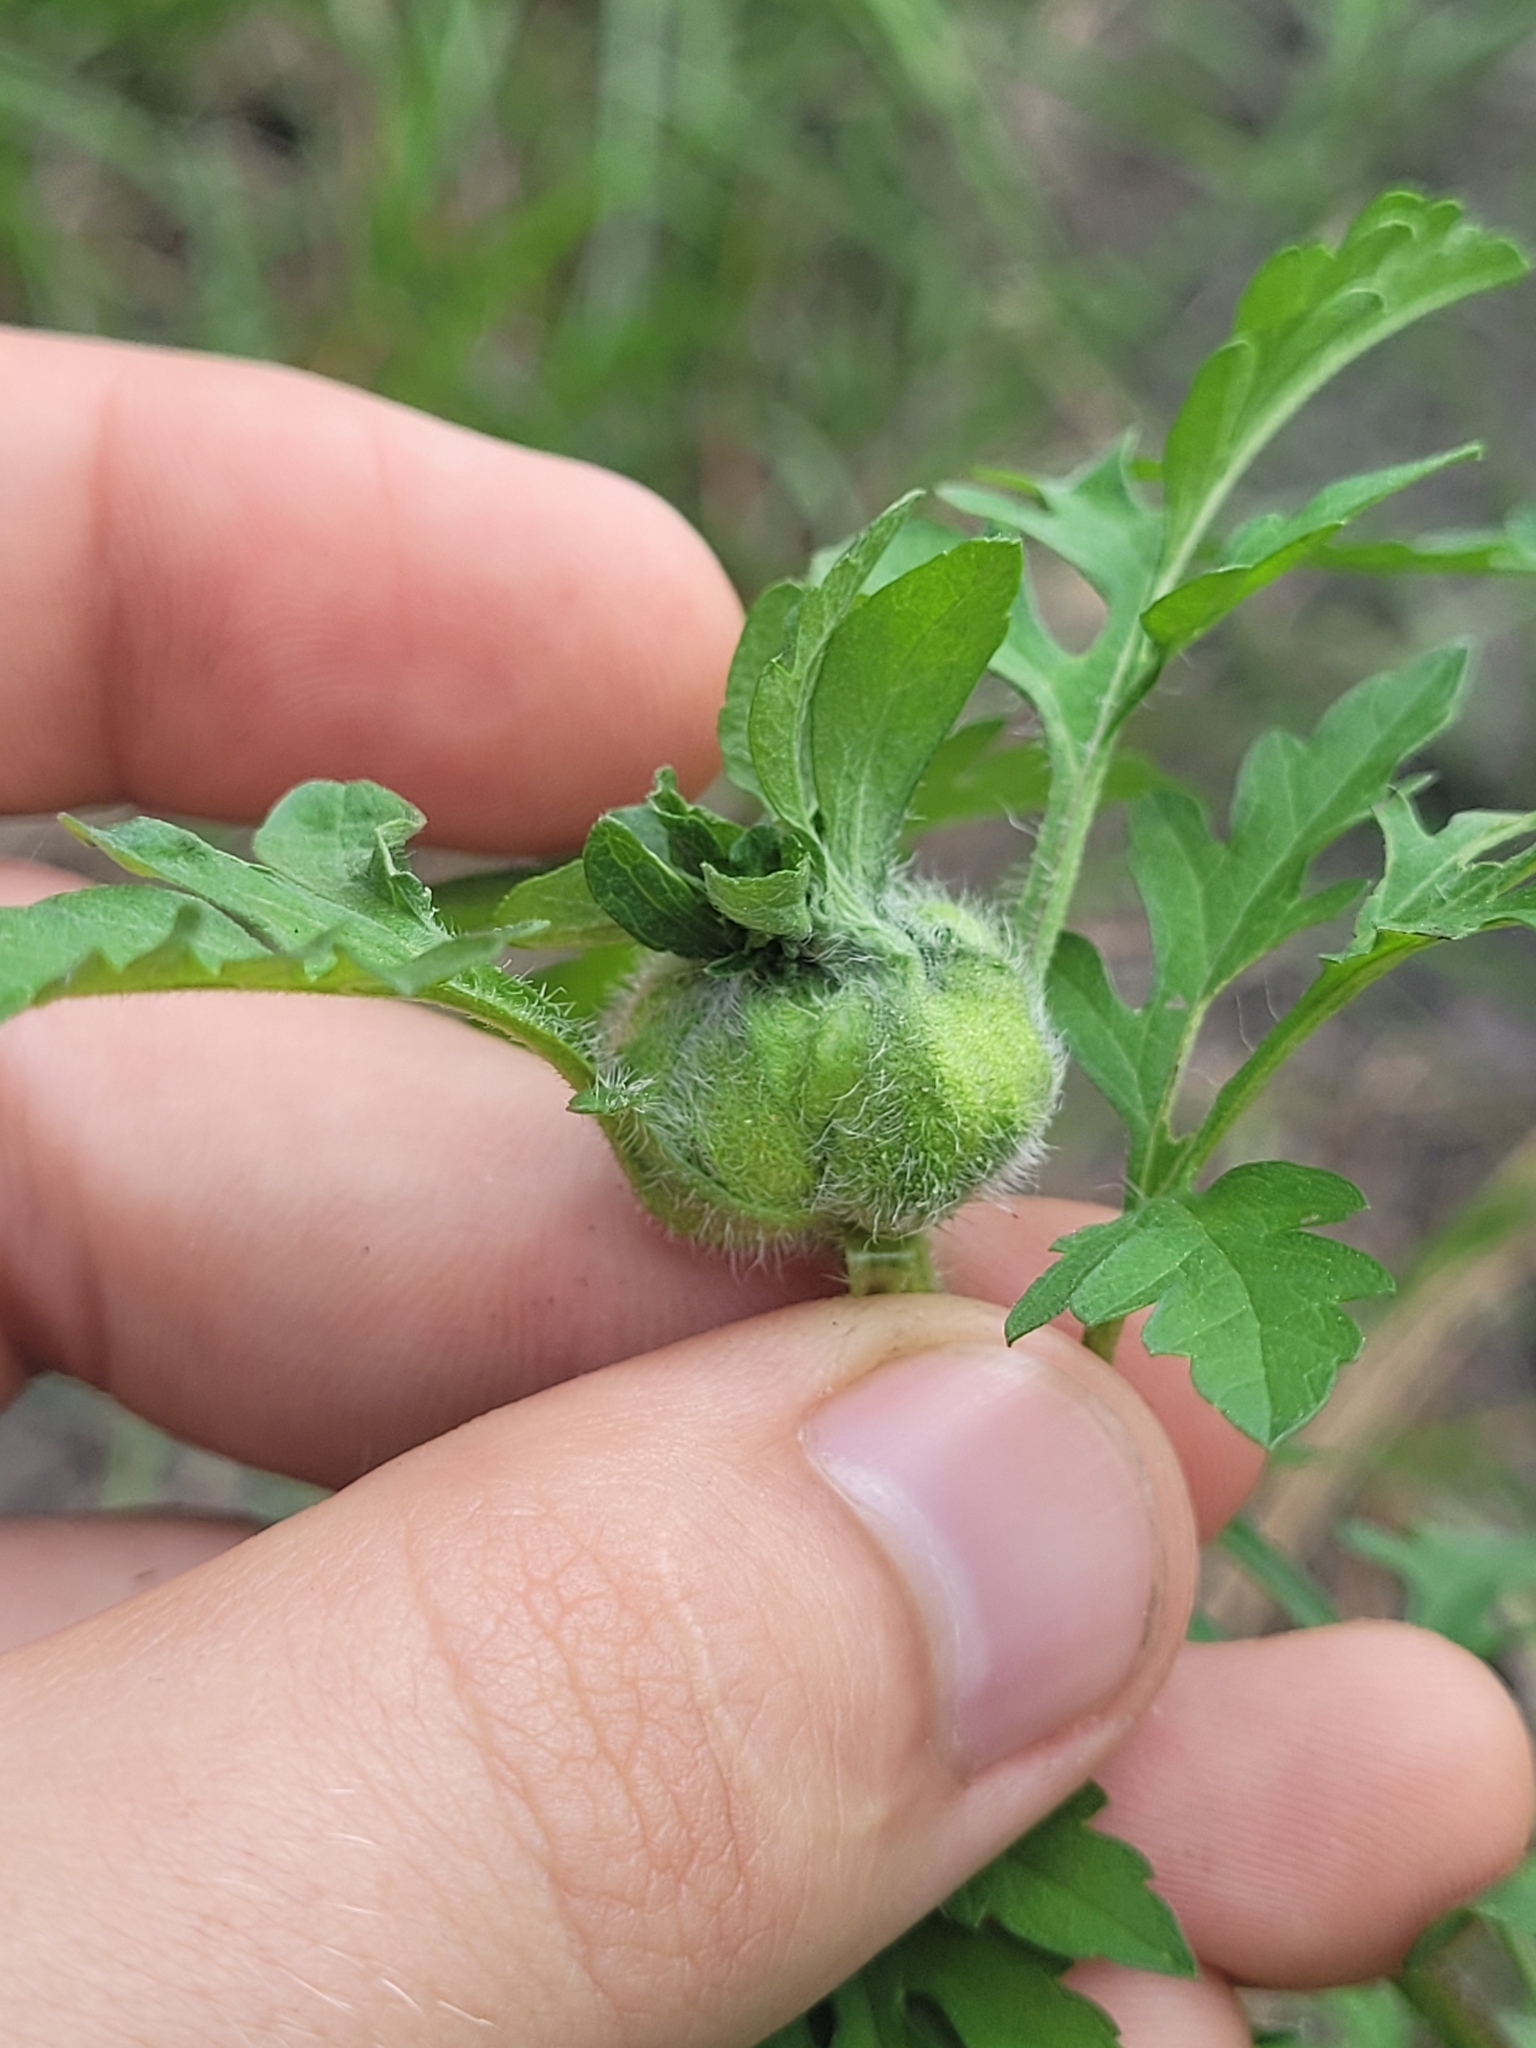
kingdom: Plantae
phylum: Tracheophyta
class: Magnoliopsida
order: Asterales
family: Asteraceae
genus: Ambrosia
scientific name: Ambrosia artemisiifolia
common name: Annual ragweed
